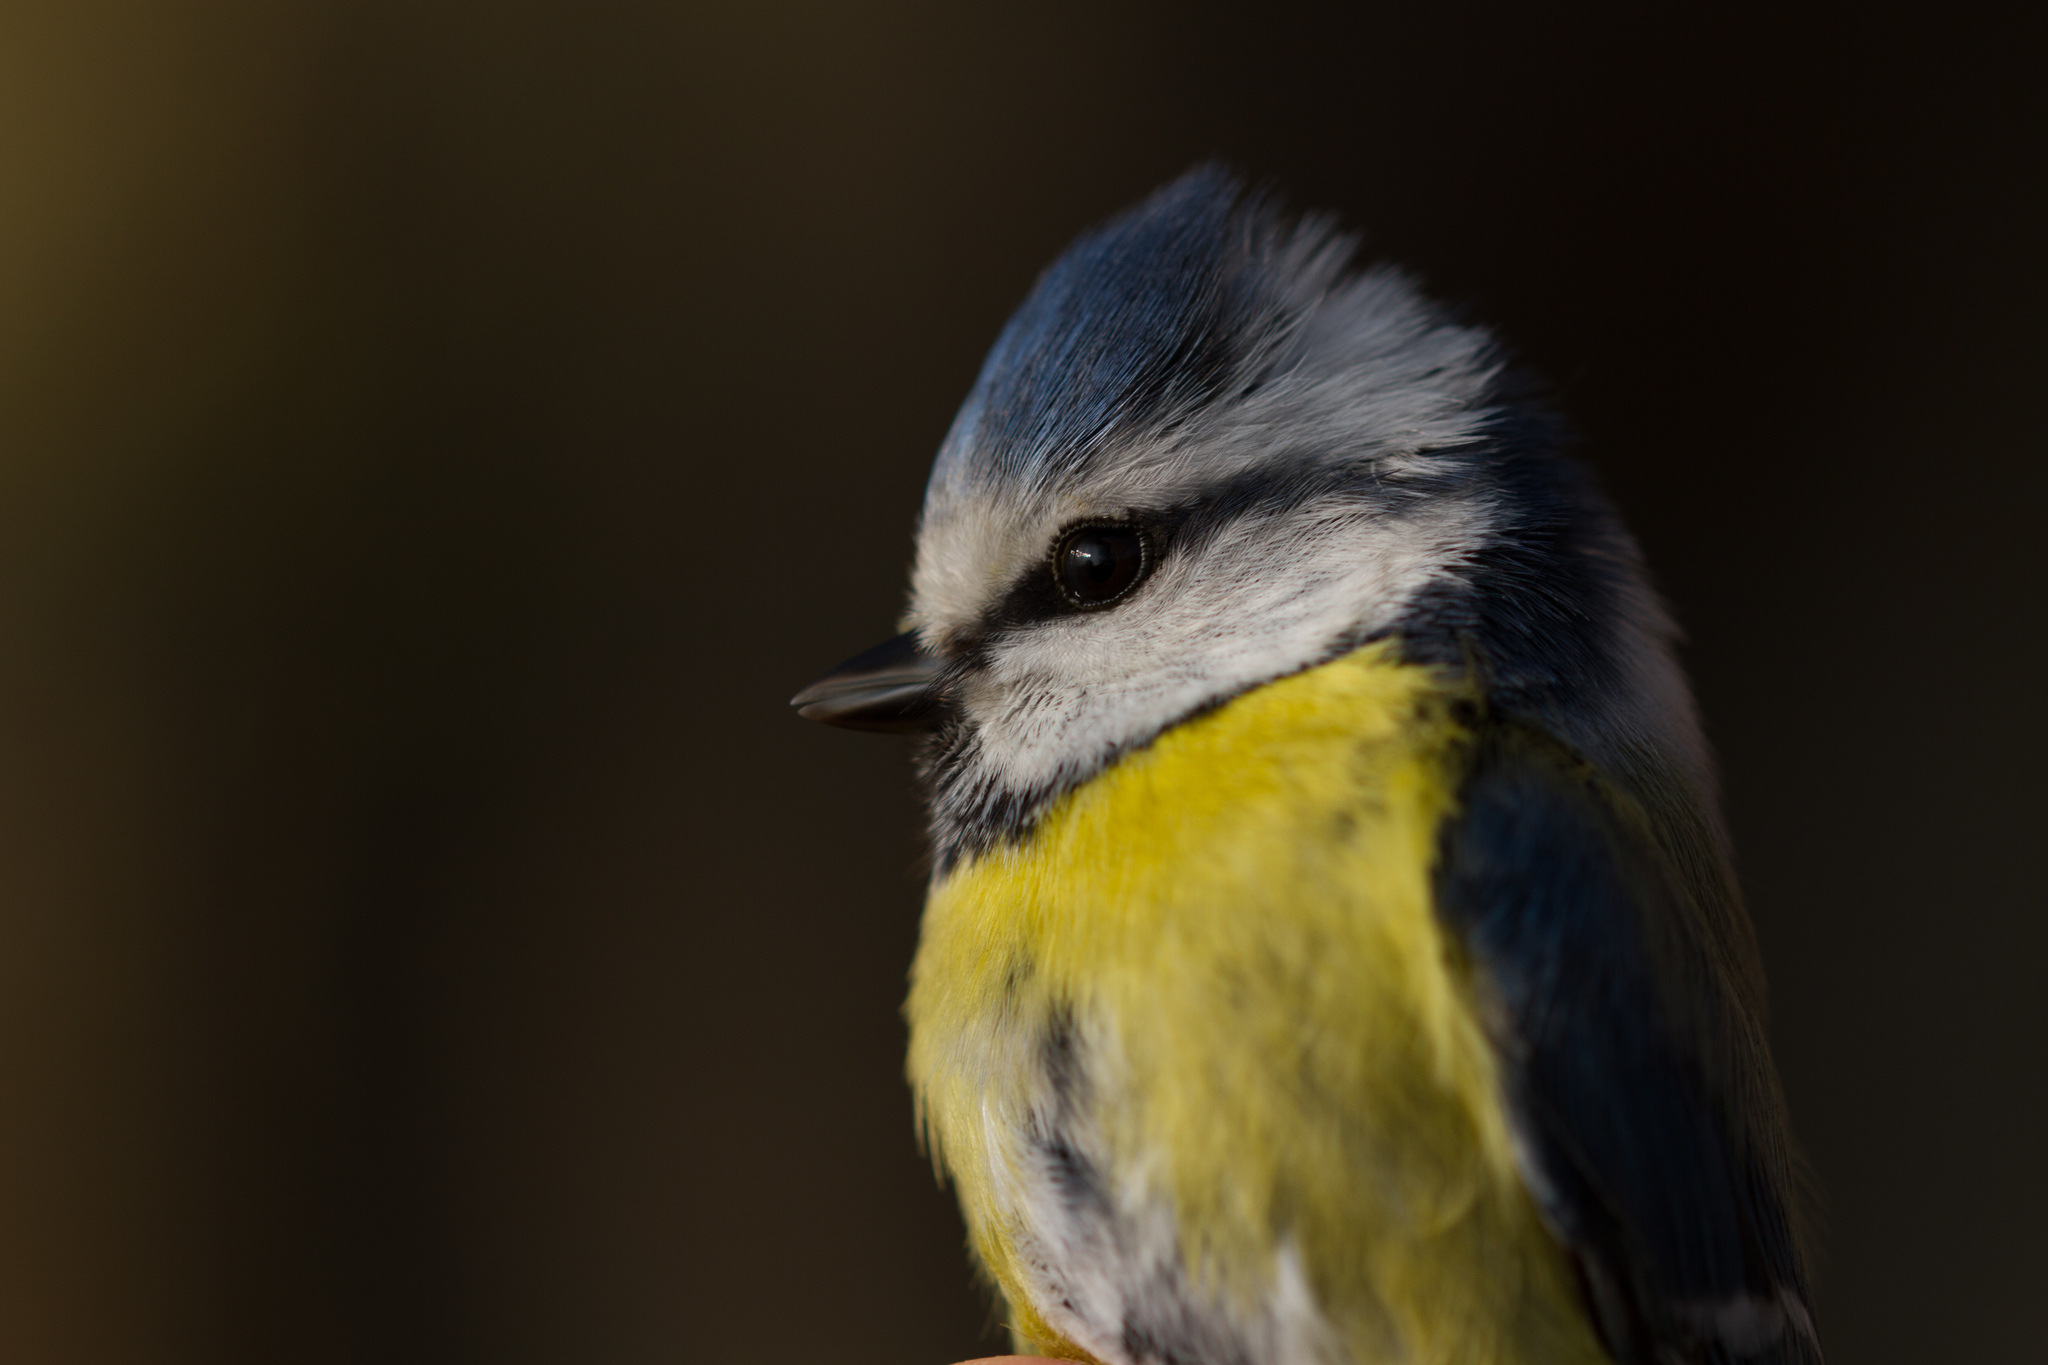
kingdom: Animalia
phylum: Chordata
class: Aves
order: Passeriformes
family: Paridae
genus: Cyanistes
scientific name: Cyanistes caeruleus
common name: Eurasian blue tit
